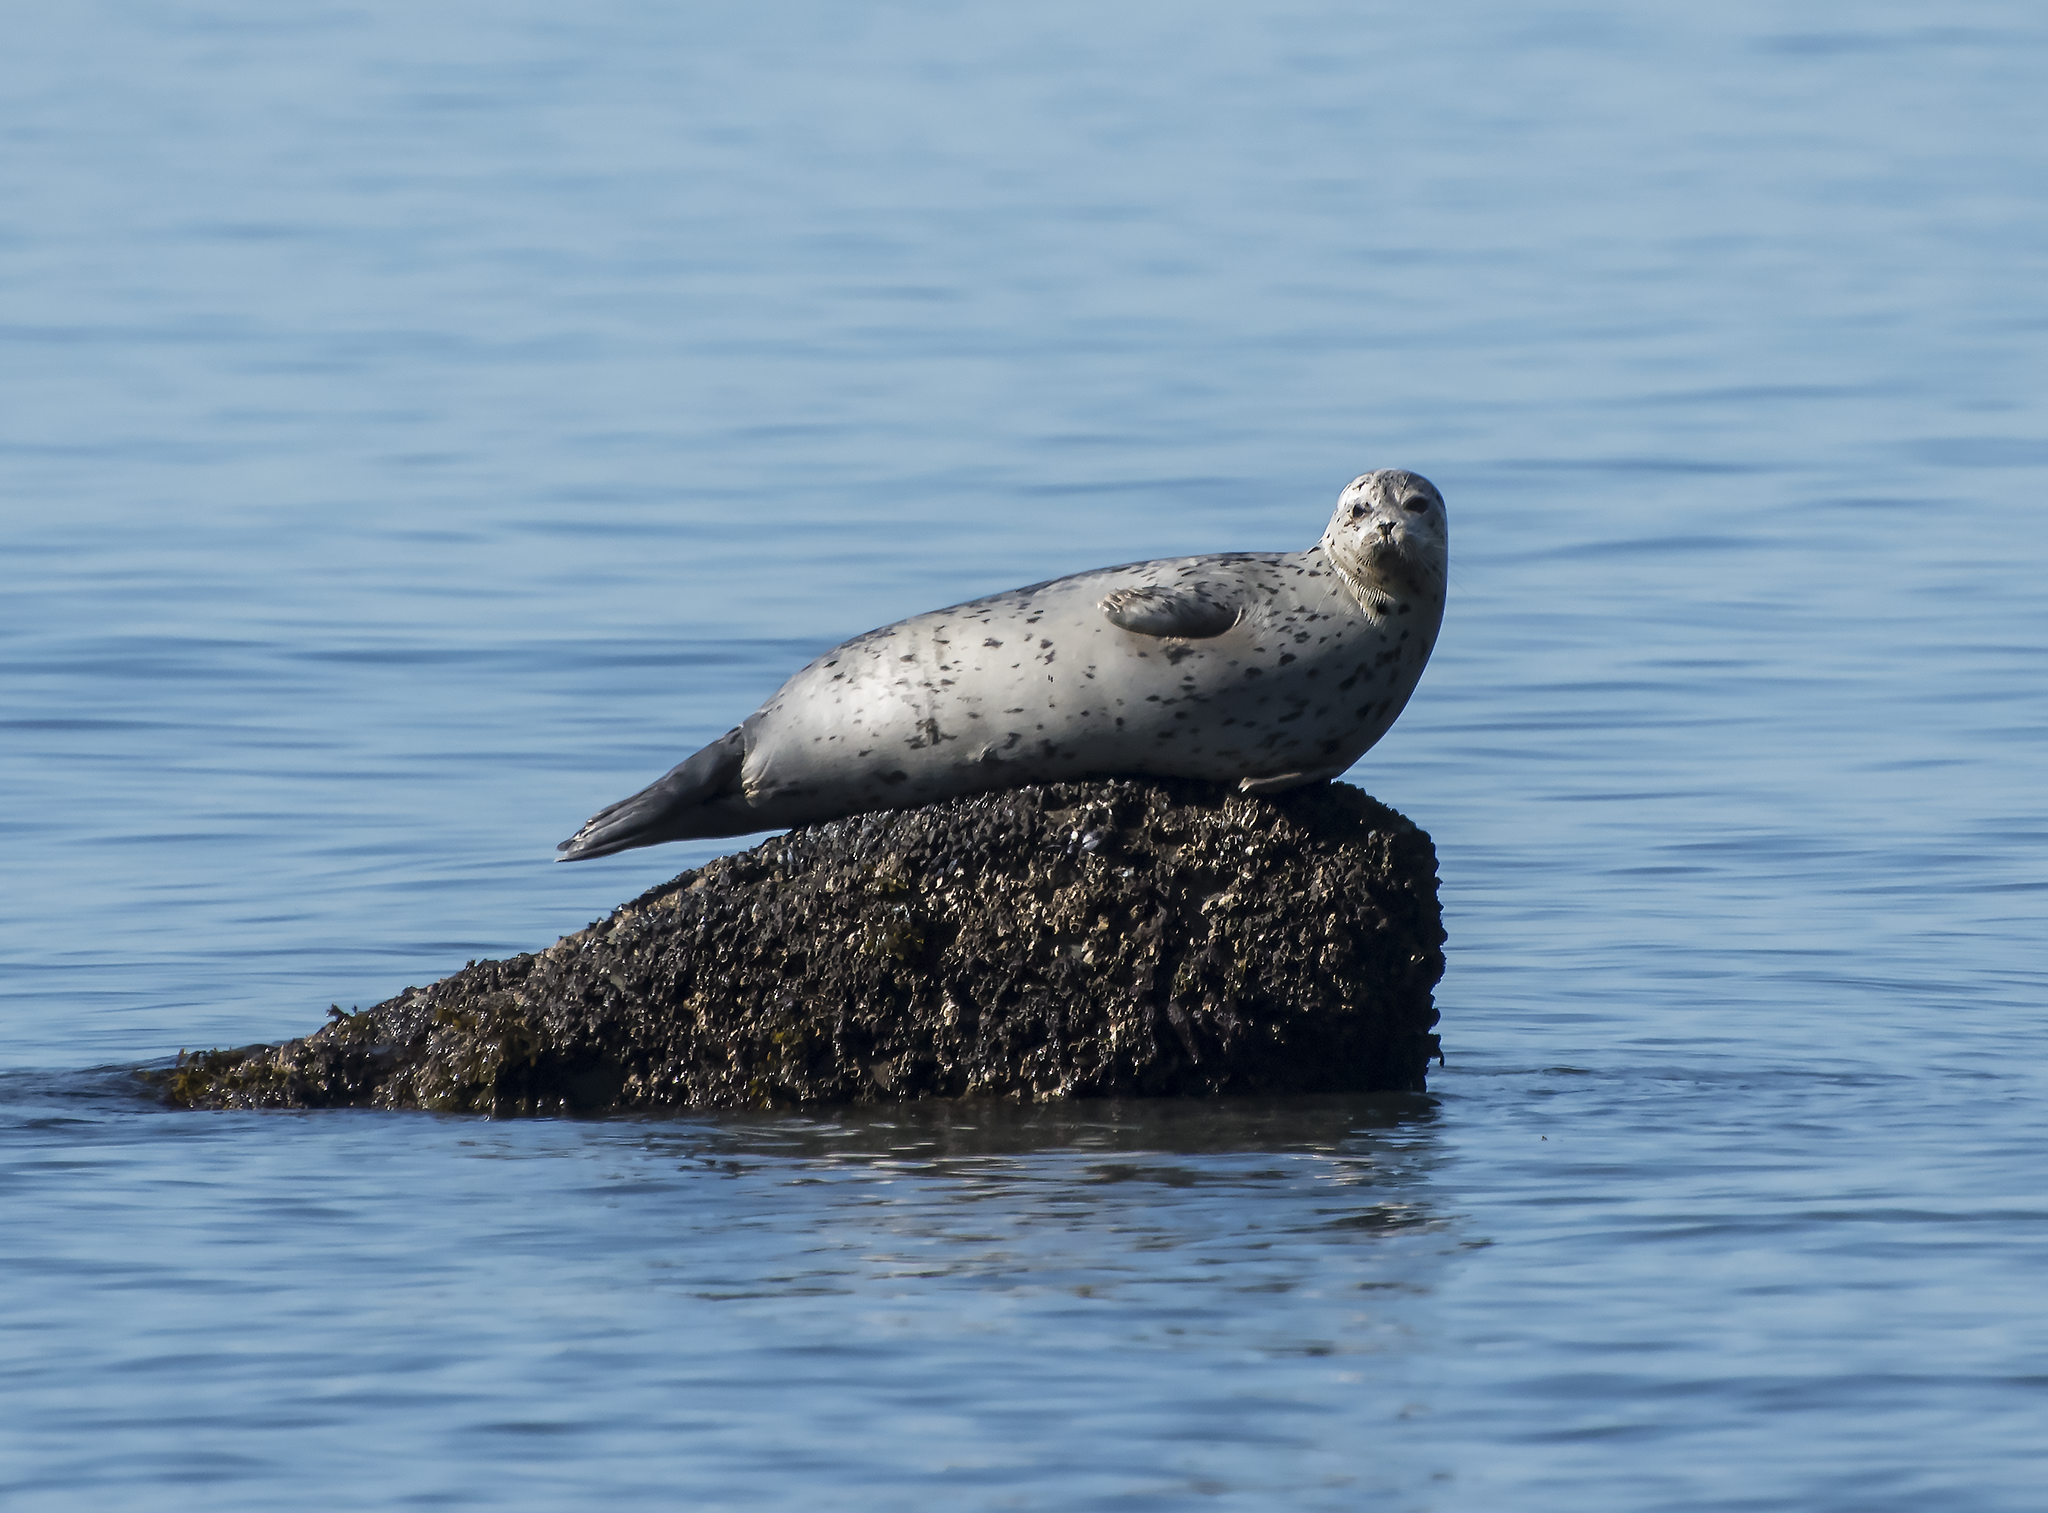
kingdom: Animalia
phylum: Chordata
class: Mammalia
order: Carnivora
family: Phocidae
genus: Phoca
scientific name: Phoca vitulina
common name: Harbor seal
